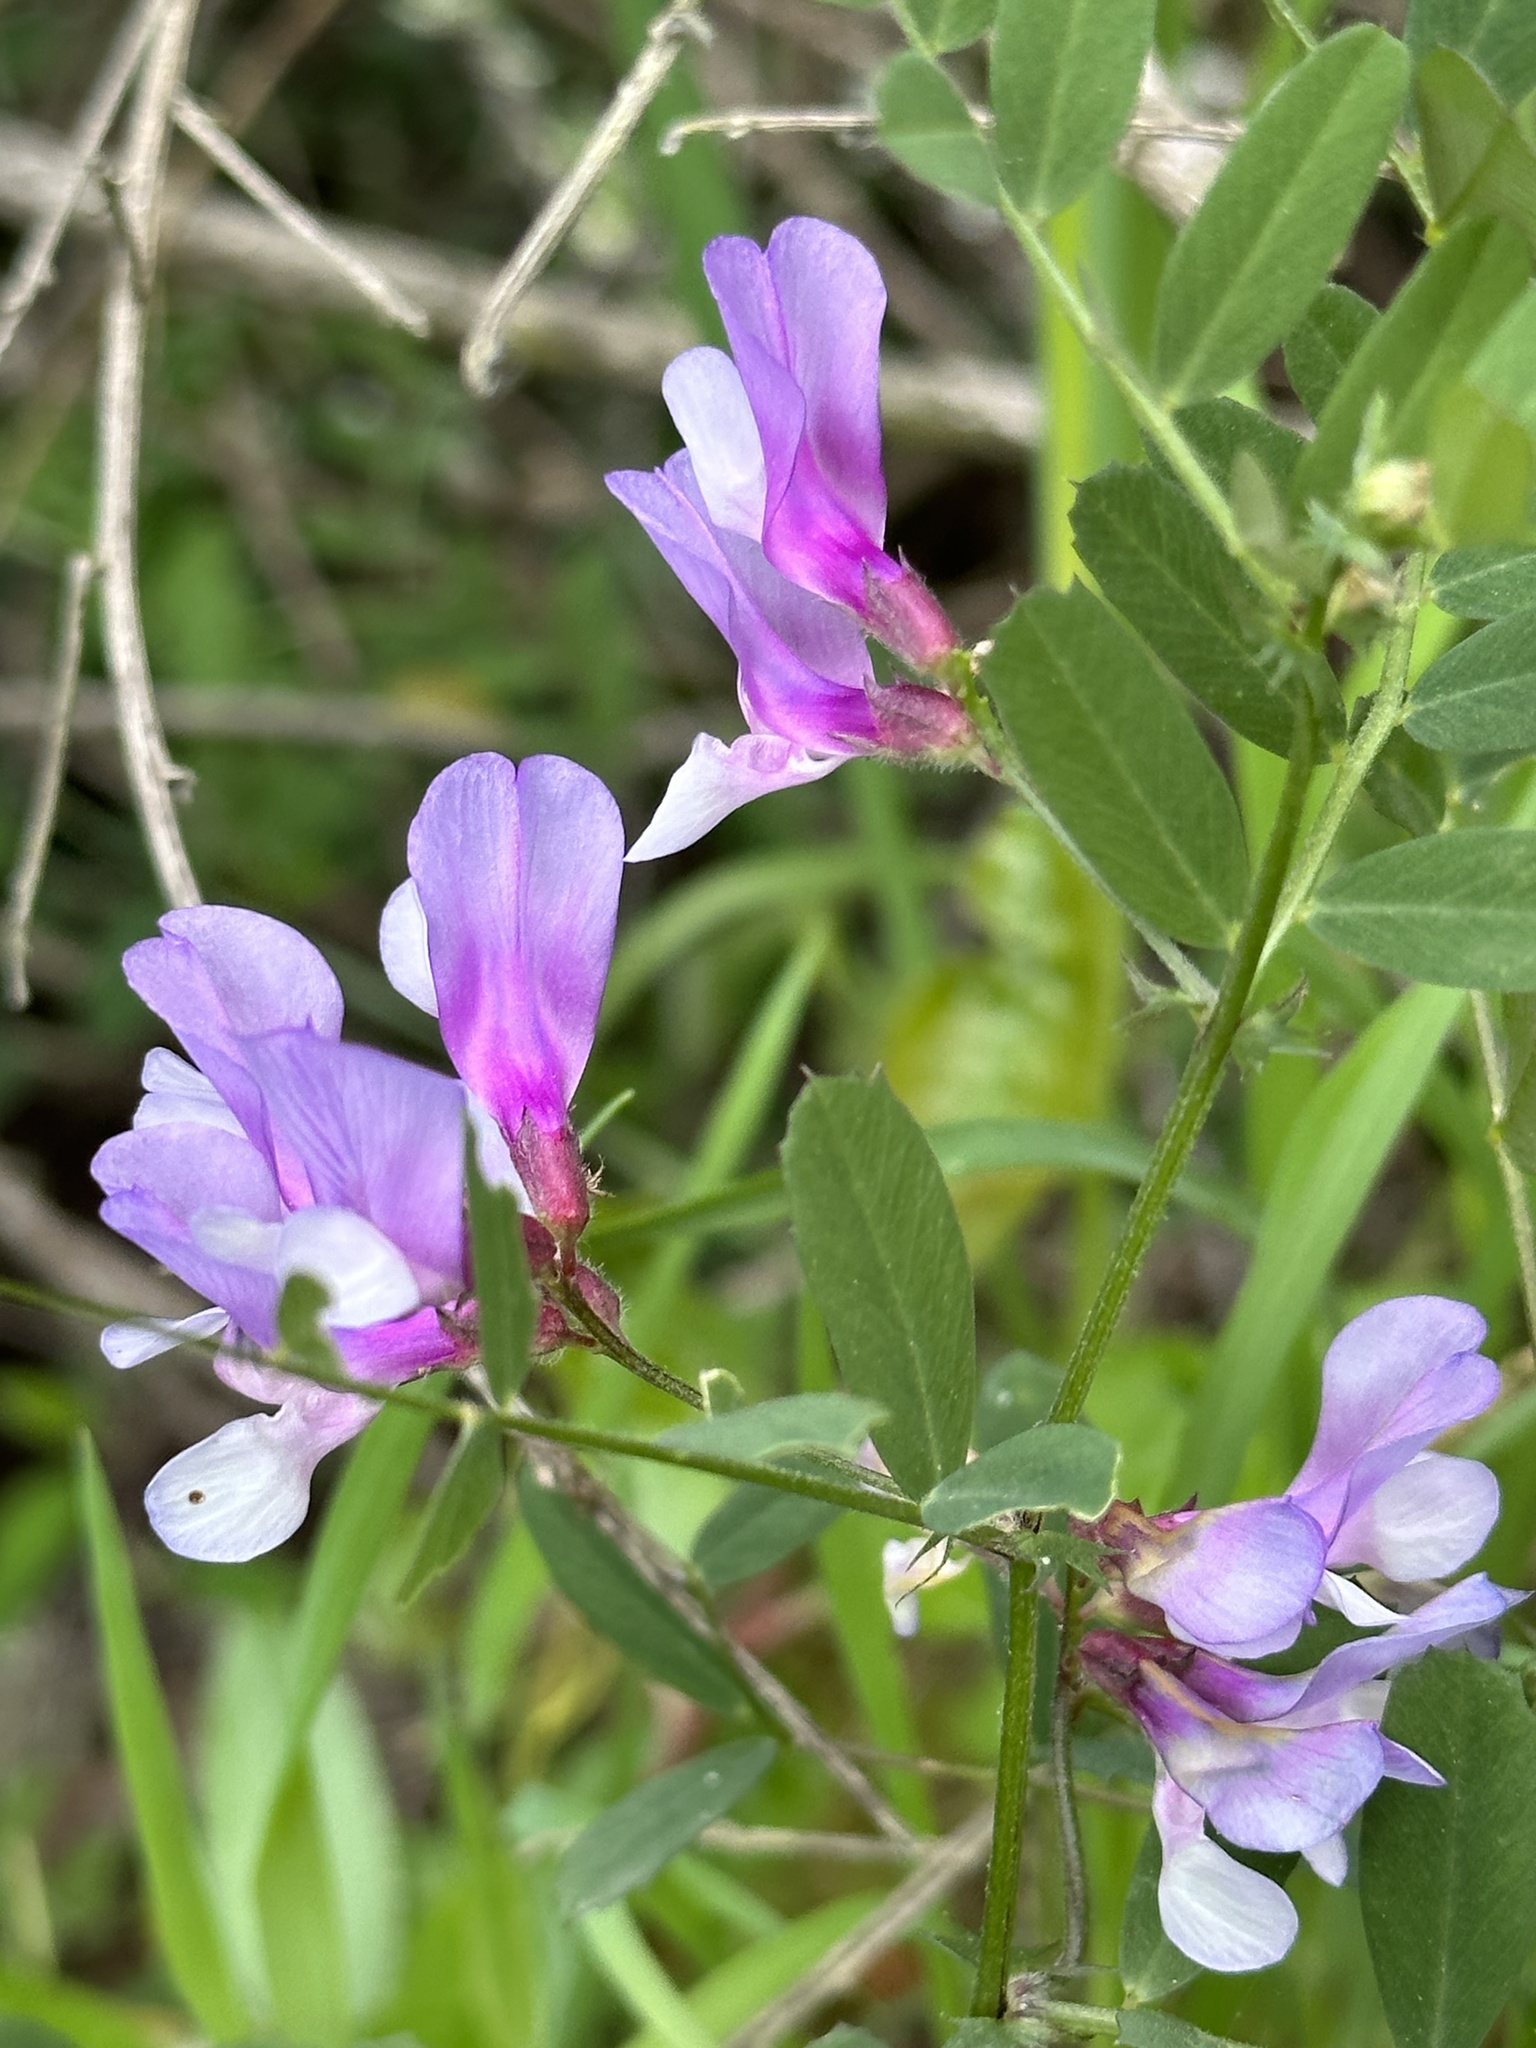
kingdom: Plantae
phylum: Tracheophyta
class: Magnoliopsida
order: Fabales
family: Fabaceae
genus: Vicia
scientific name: Vicia americana
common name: American vetch
